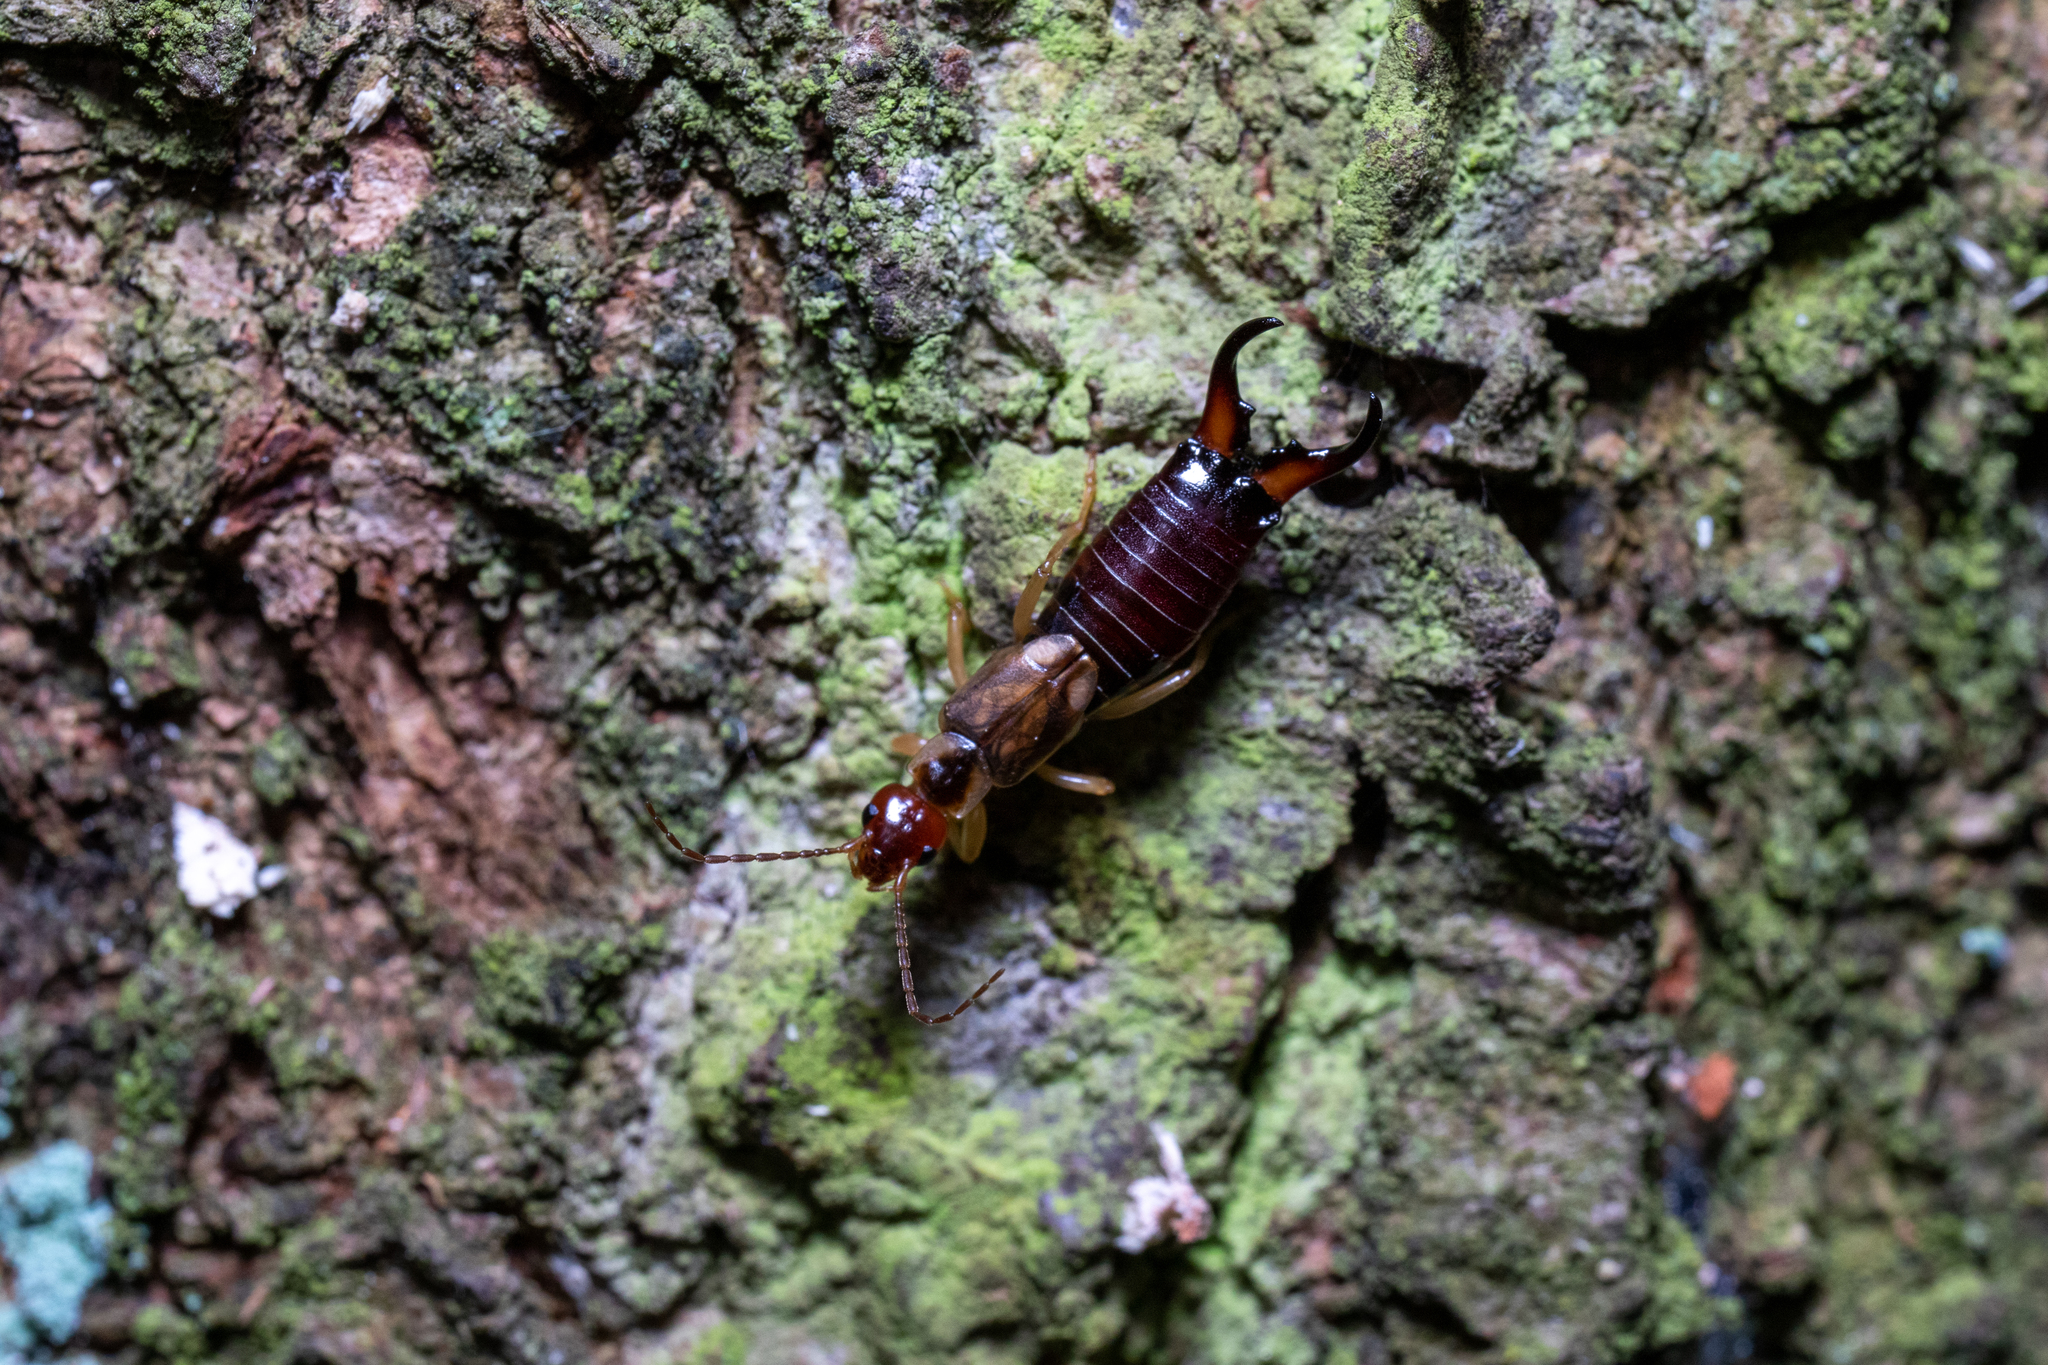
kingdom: Animalia
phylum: Arthropoda
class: Insecta
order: Dermaptera
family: Forficulidae
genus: Forficula
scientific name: Forficula
